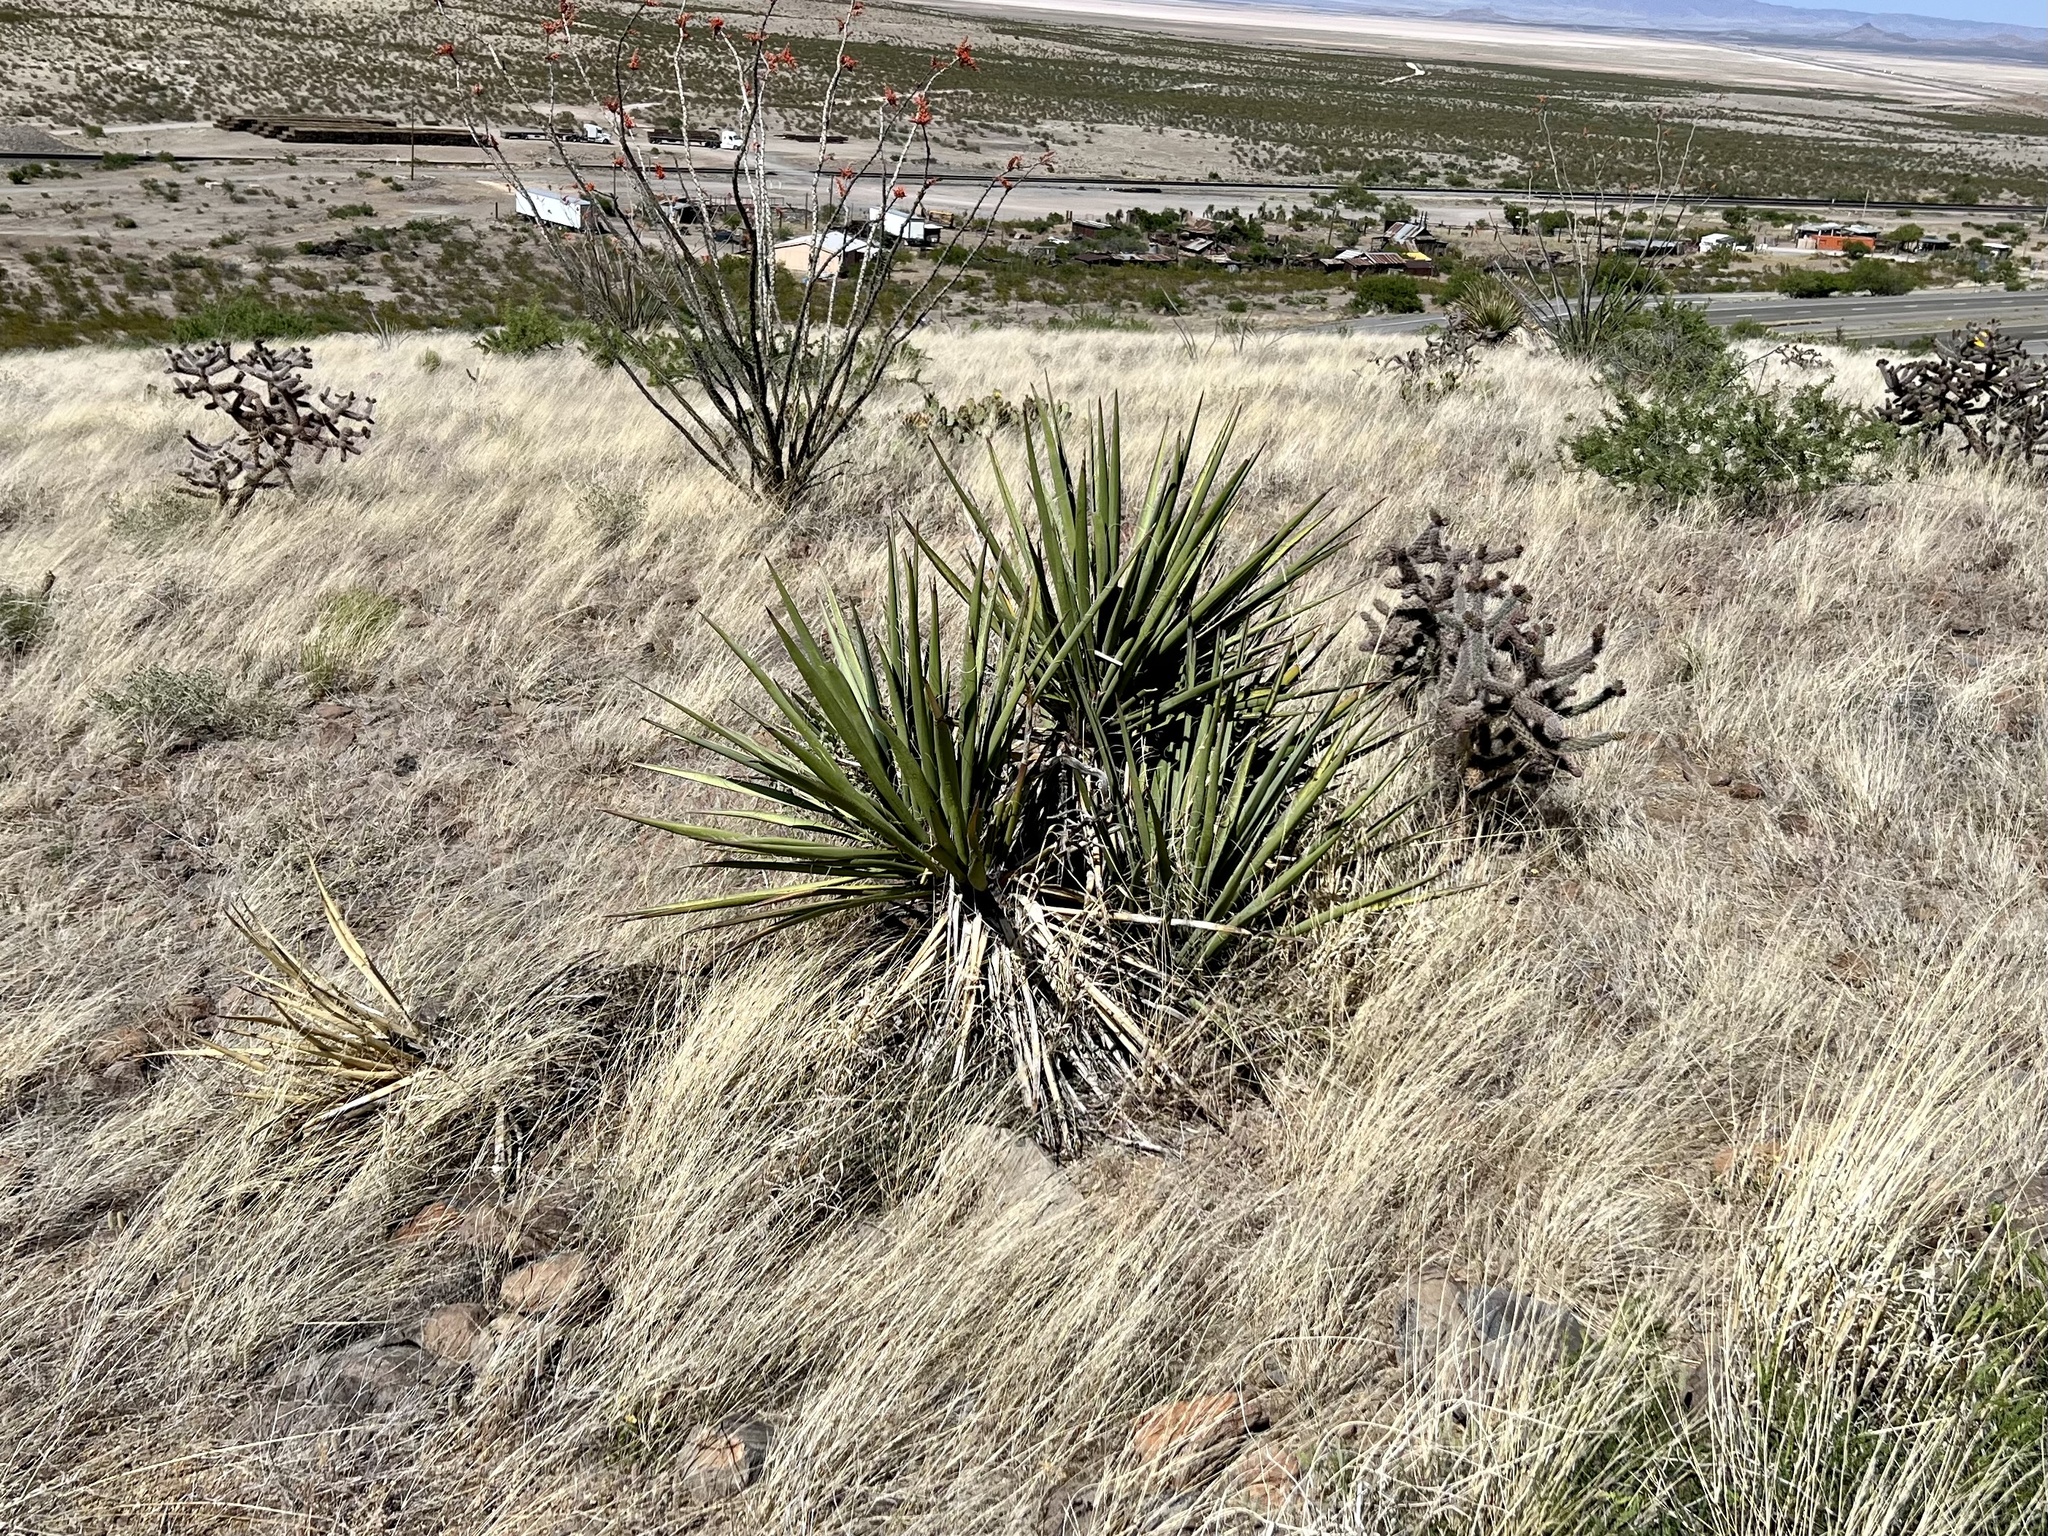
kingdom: Plantae
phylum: Tracheophyta
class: Liliopsida
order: Asparagales
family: Asparagaceae
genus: Yucca
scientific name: Yucca baccata
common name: Banana yucca
